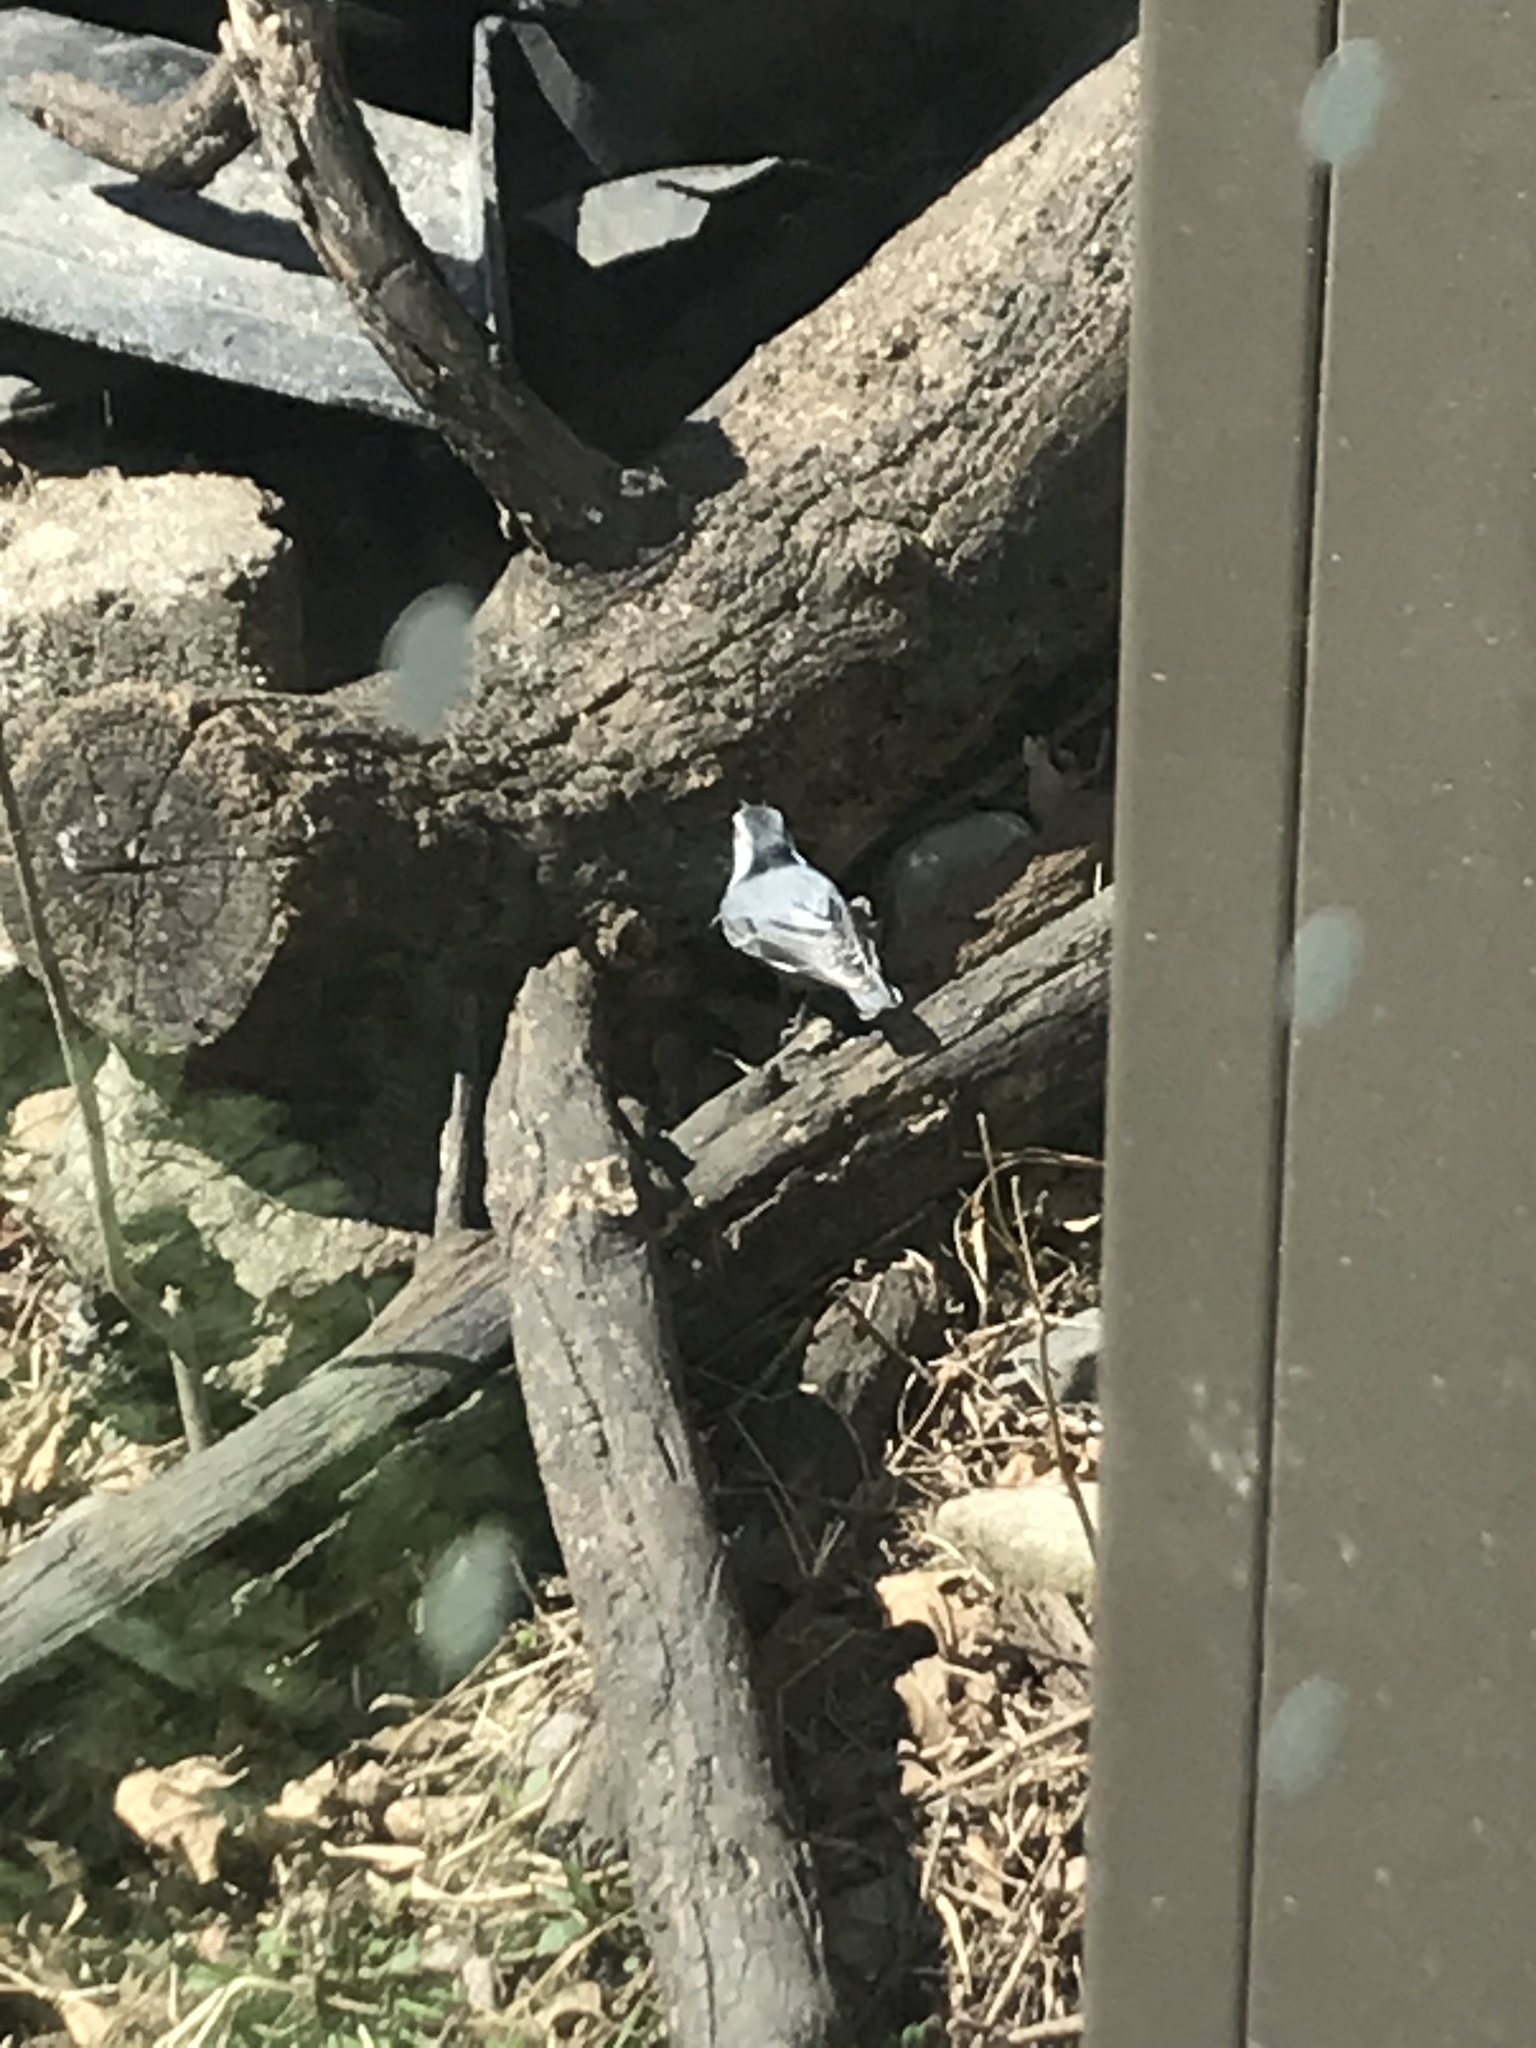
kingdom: Animalia
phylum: Chordata
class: Aves
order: Passeriformes
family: Sittidae
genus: Sitta
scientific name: Sitta carolinensis
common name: White-breasted nuthatch
